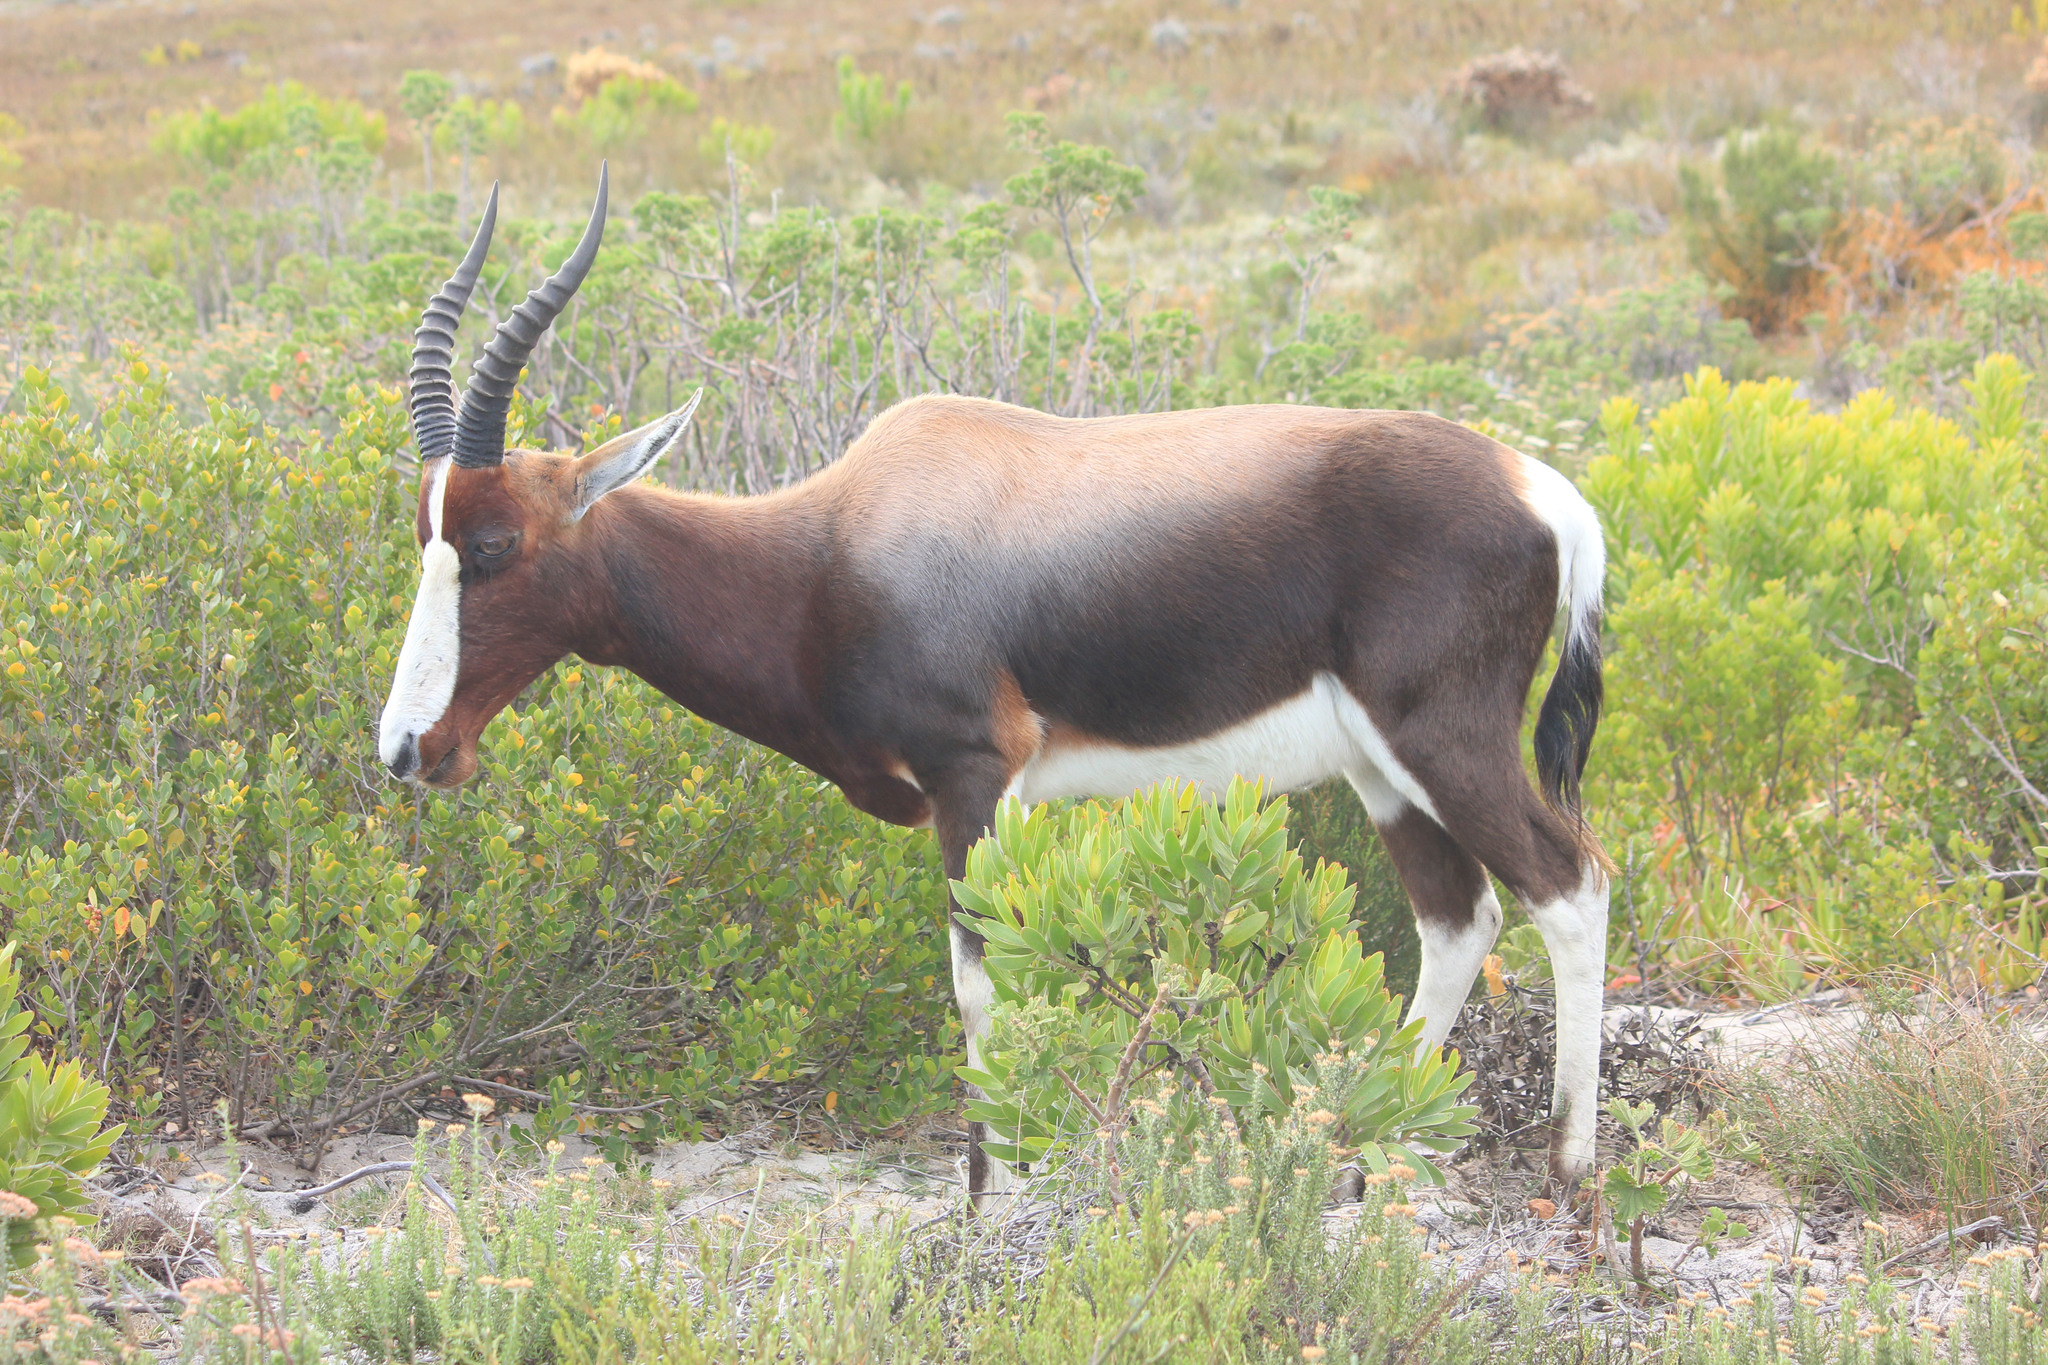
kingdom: Animalia
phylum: Chordata
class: Mammalia
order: Artiodactyla
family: Bovidae
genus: Damaliscus
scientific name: Damaliscus pygargus
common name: Bontebok
